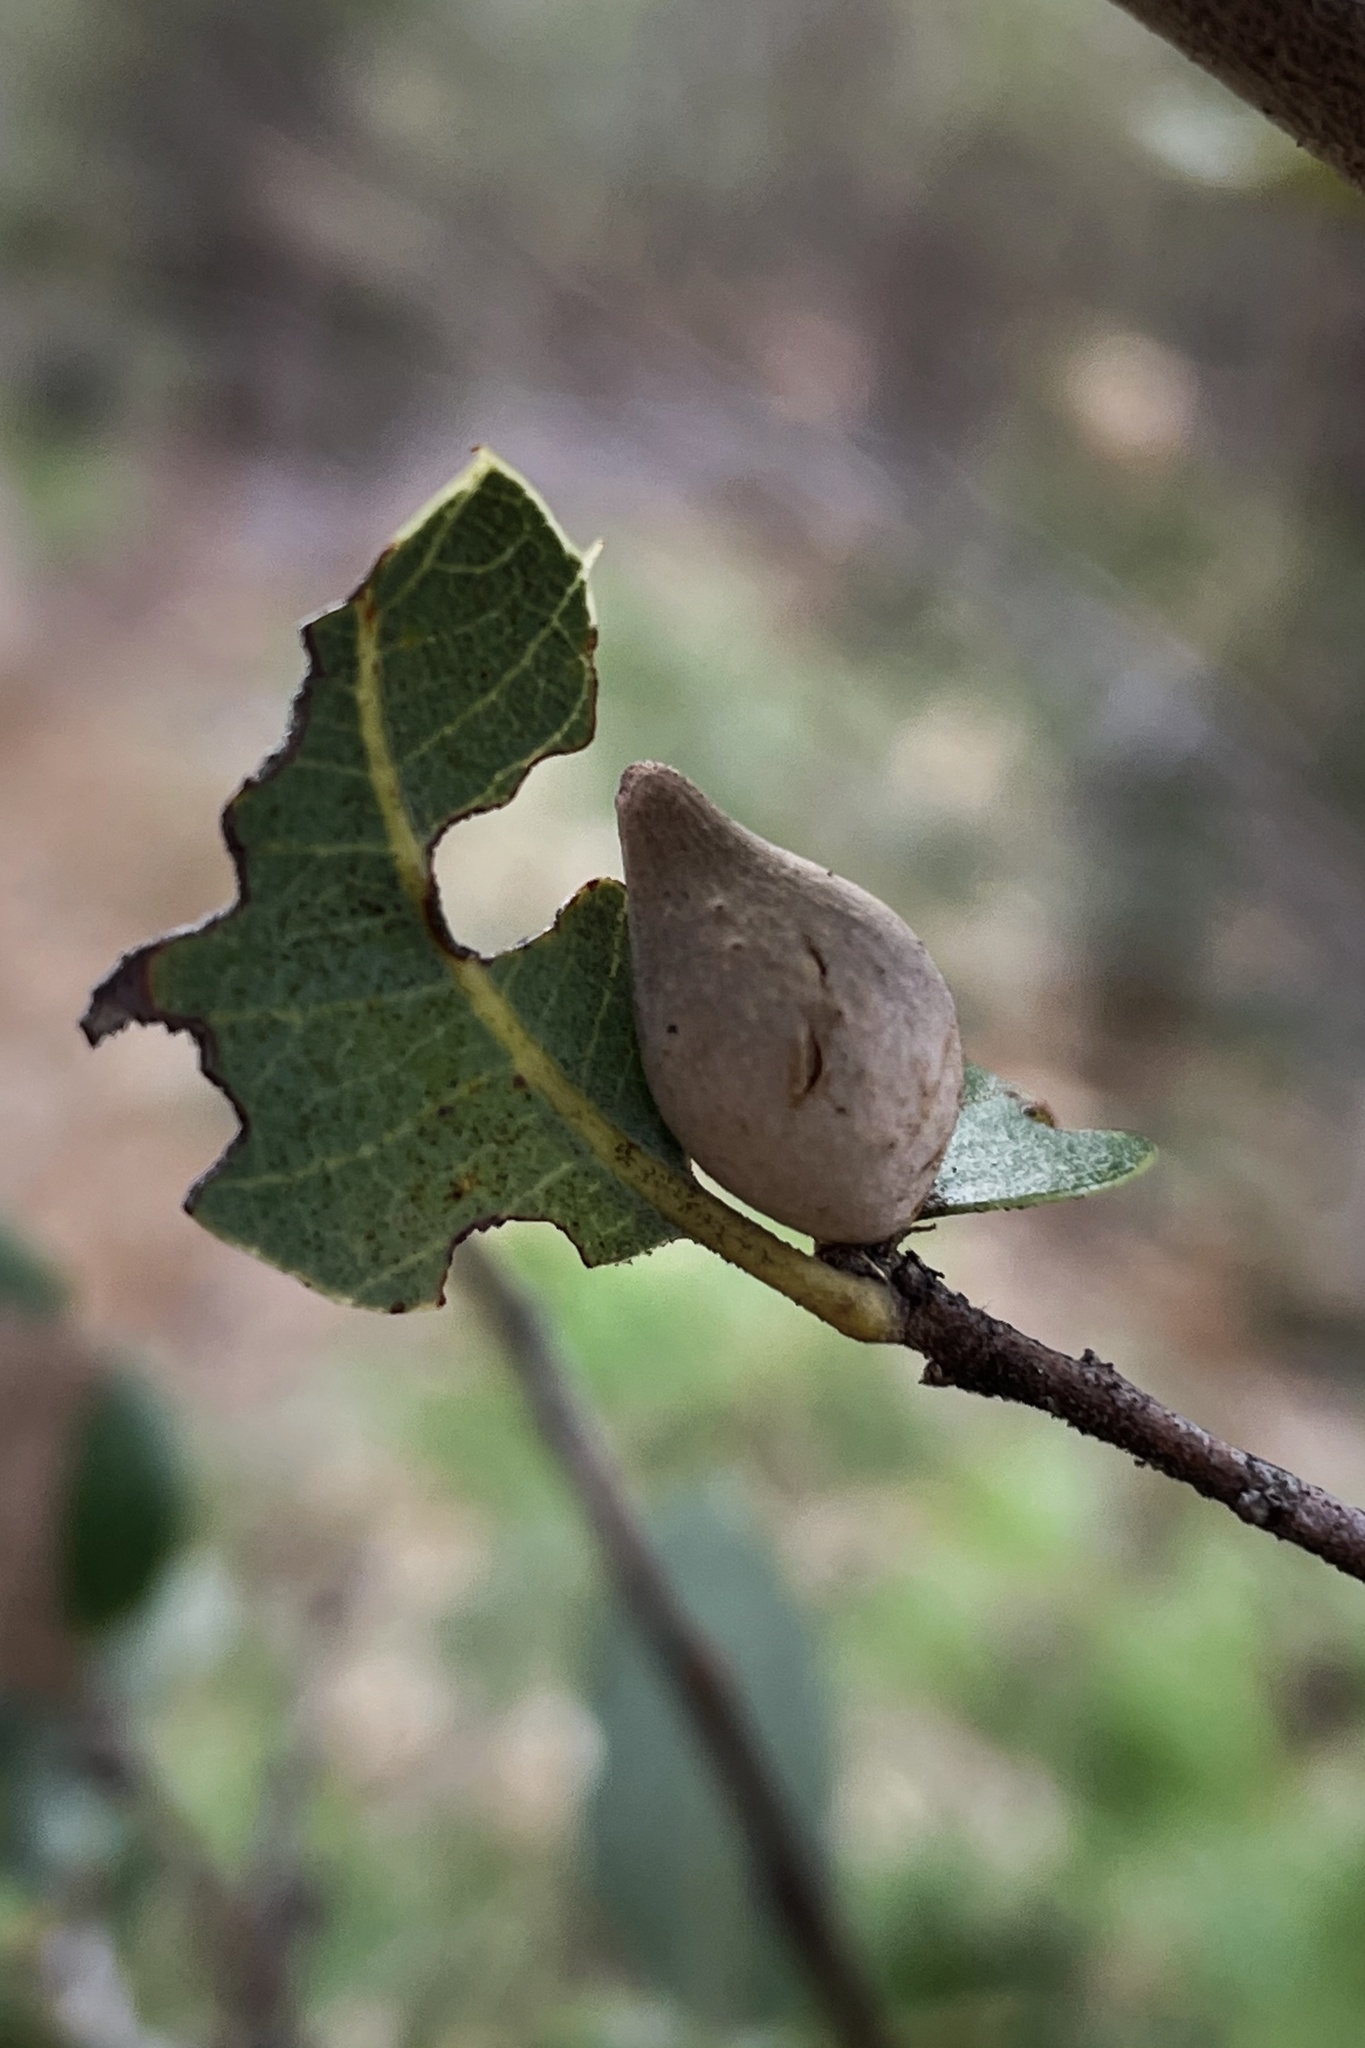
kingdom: Animalia
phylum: Arthropoda
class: Insecta
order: Hymenoptera
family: Cynipidae
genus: Heteroecus
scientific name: Heteroecus pacificus
